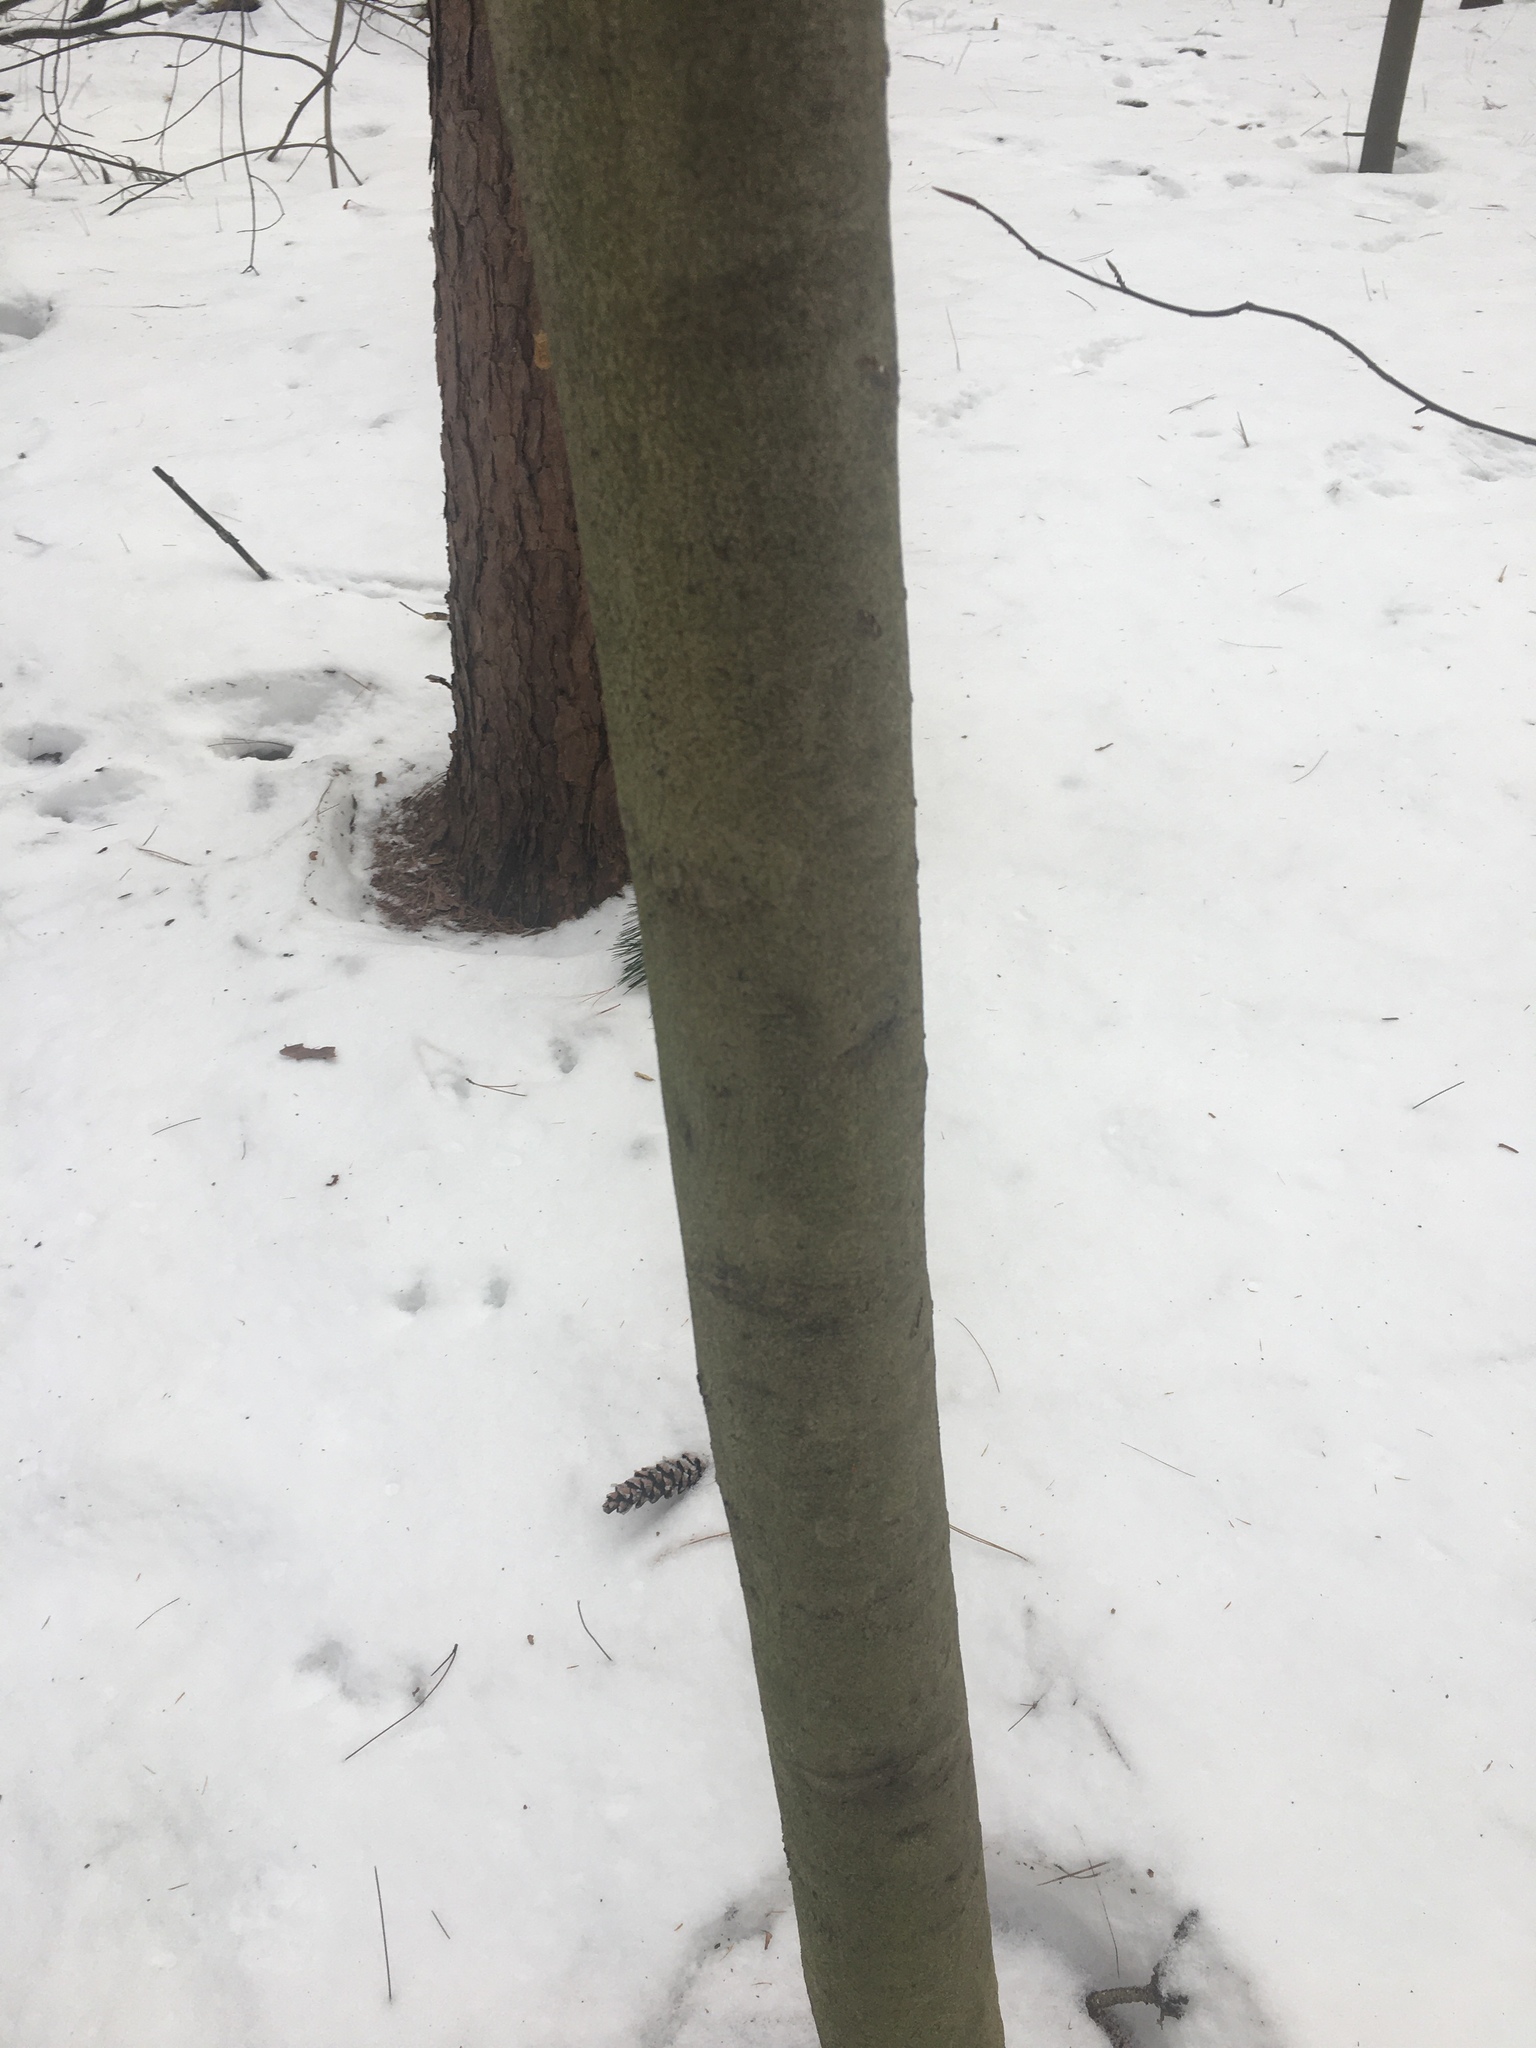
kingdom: Plantae
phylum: Tracheophyta
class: Magnoliopsida
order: Fagales
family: Fagaceae
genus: Fagus
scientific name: Fagus grandifolia
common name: American beech
